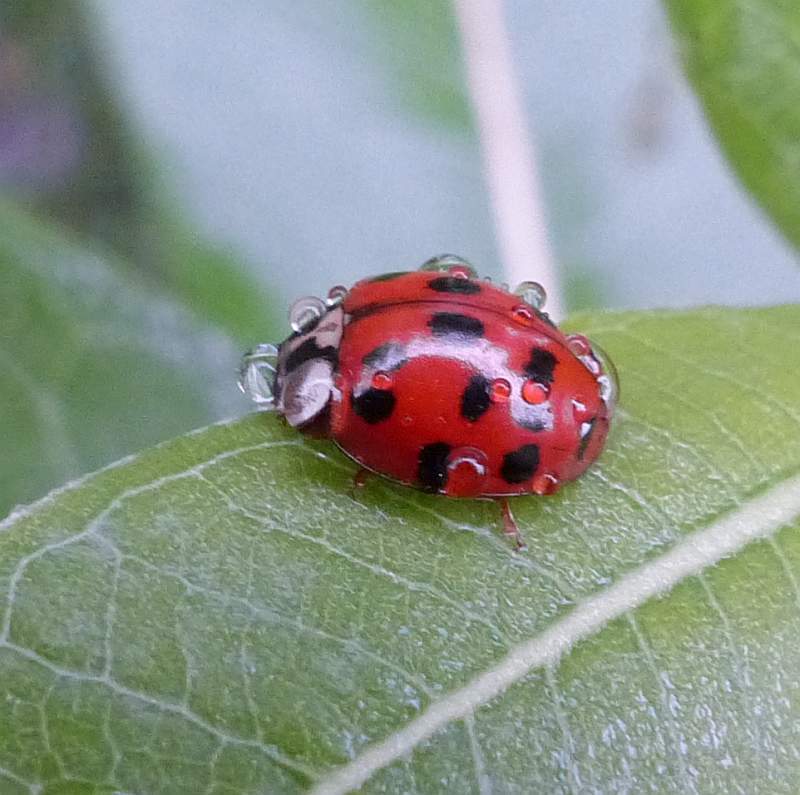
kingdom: Animalia
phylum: Arthropoda
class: Insecta
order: Coleoptera
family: Coccinellidae
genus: Harmonia
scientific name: Harmonia axyridis
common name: Harlequin ladybird
